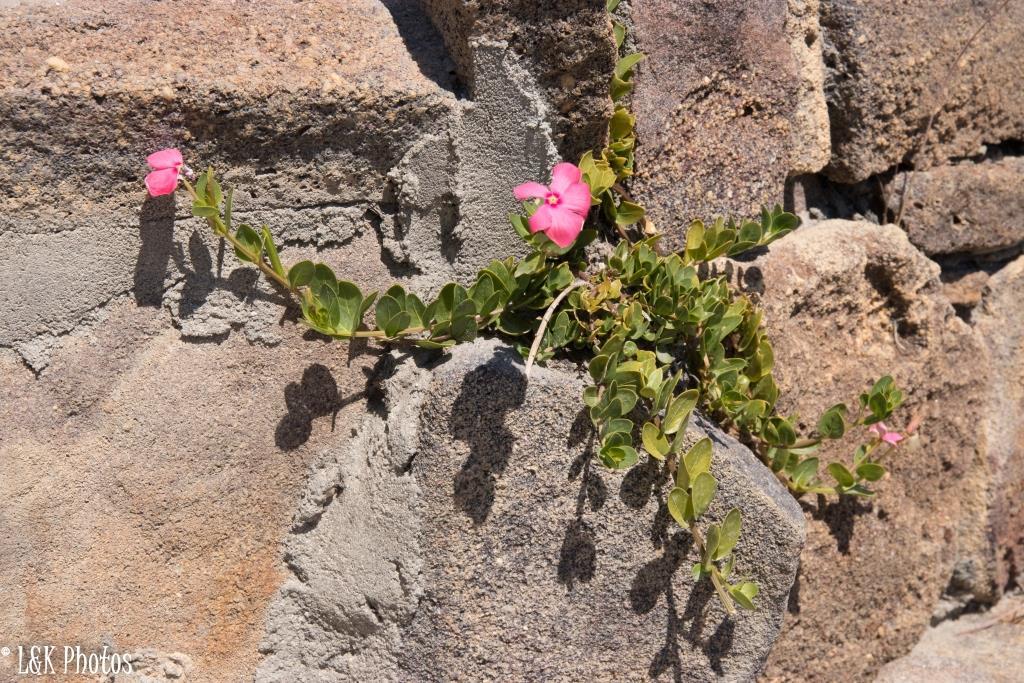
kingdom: Plantae
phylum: Tracheophyta
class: Magnoliopsida
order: Gentianales
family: Apocynaceae
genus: Catharanthus
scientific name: Catharanthus ovalis
